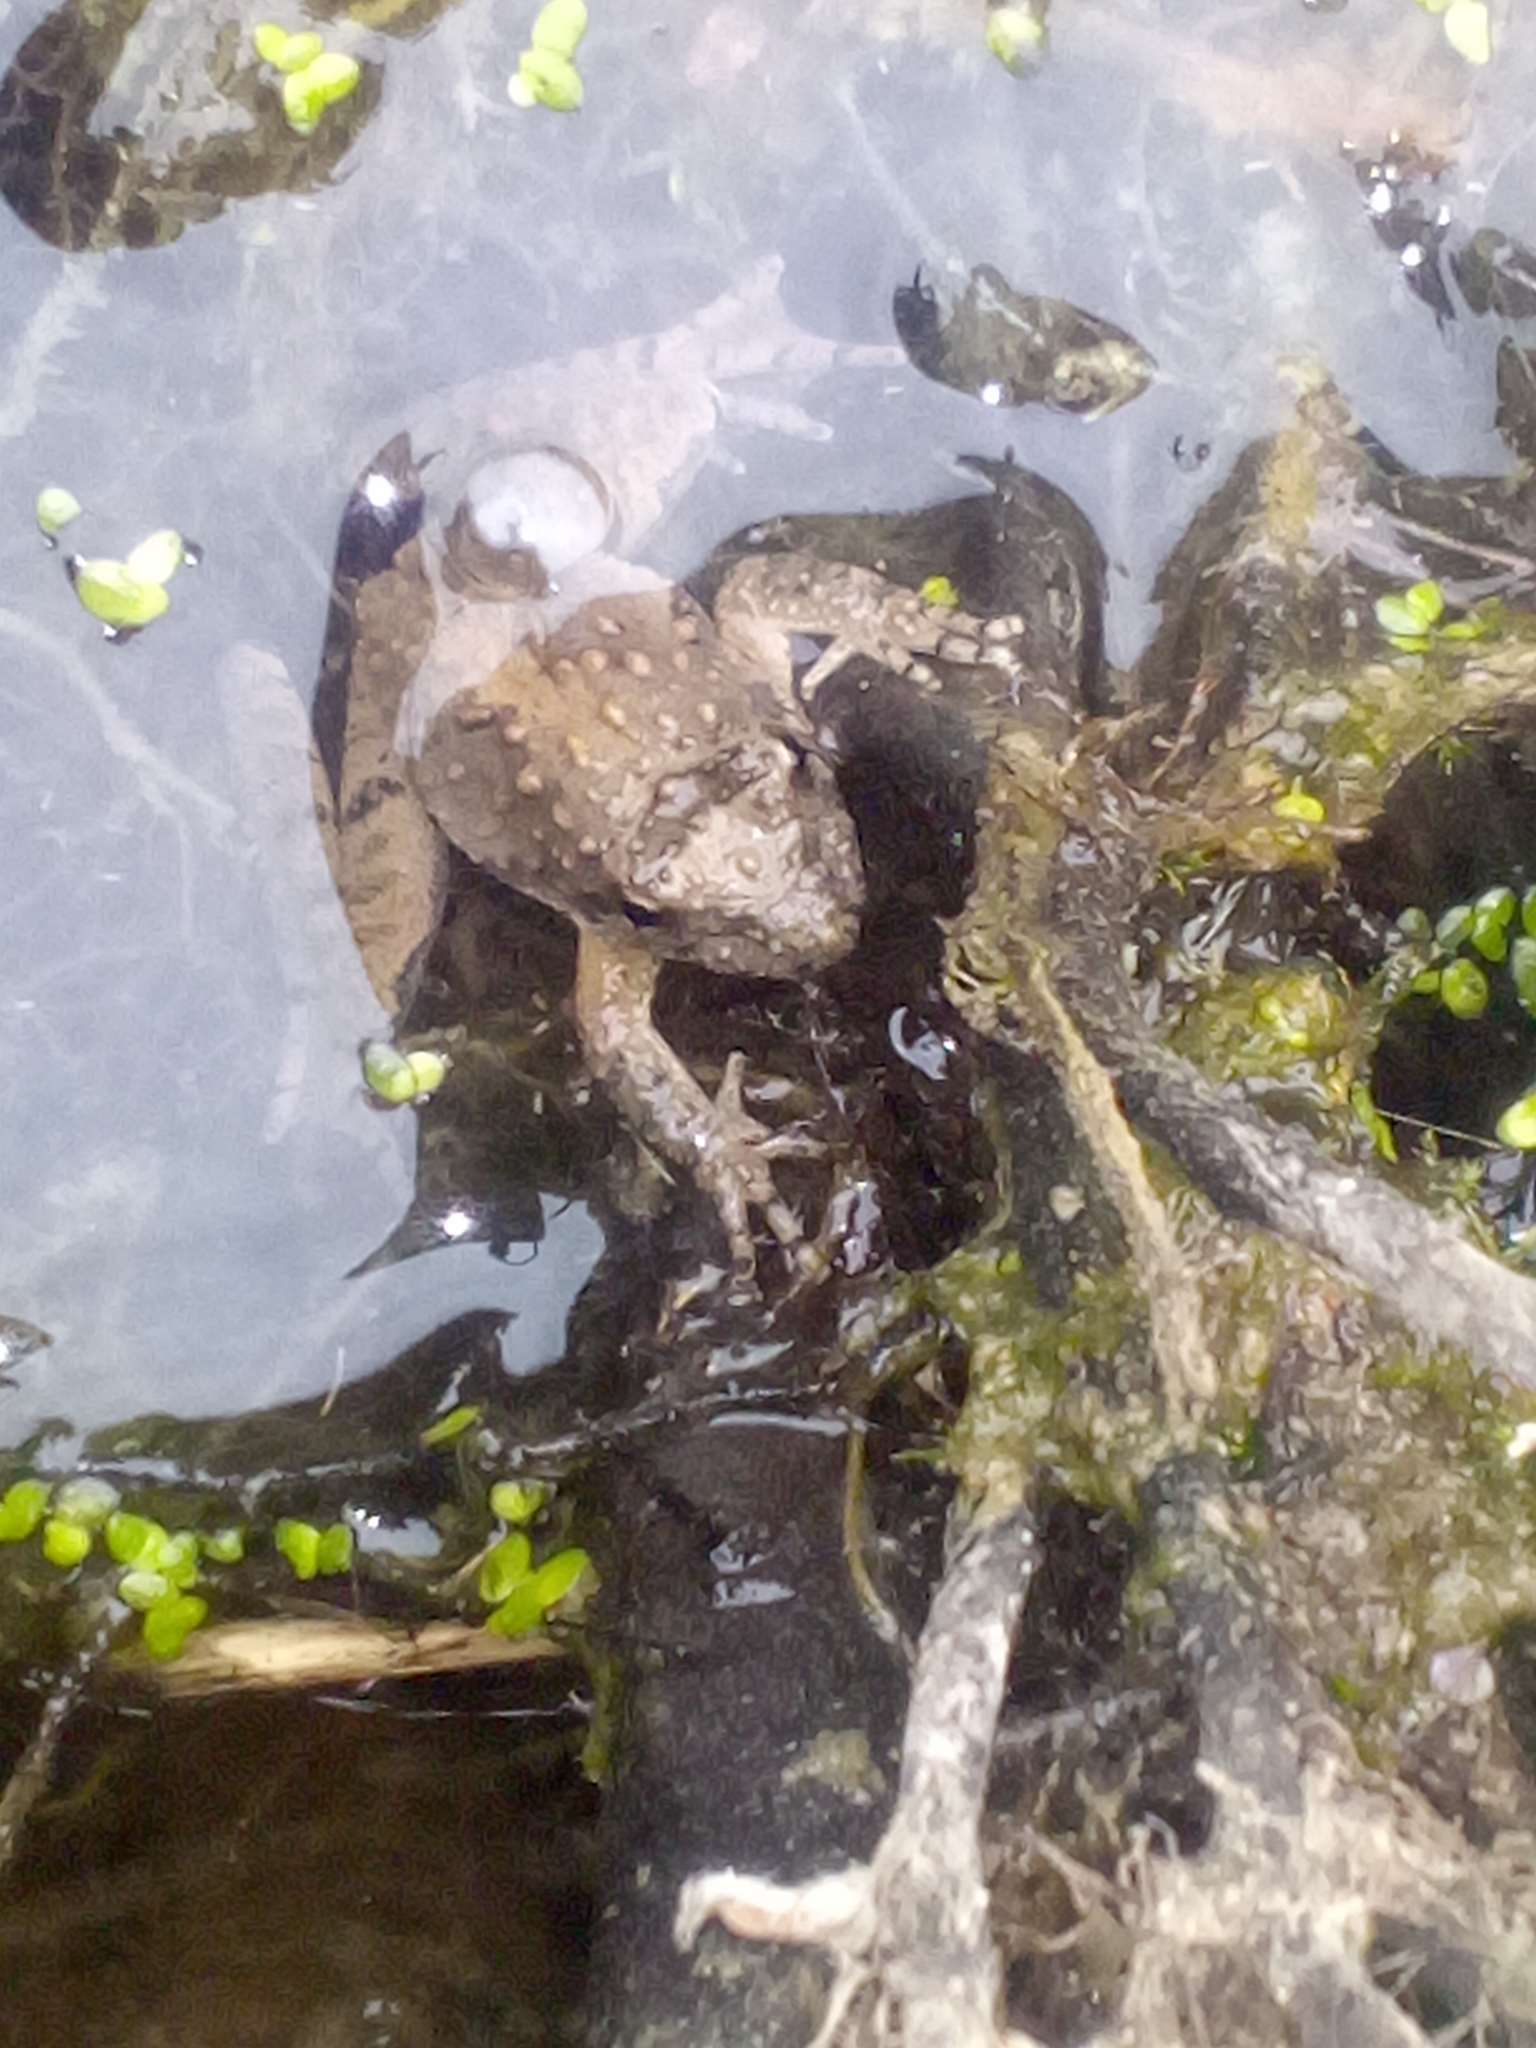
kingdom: Animalia
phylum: Chordata
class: Amphibia
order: Anura
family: Hylidae
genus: Acris
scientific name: Acris blanchardi
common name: Blanchard's cricket frog
